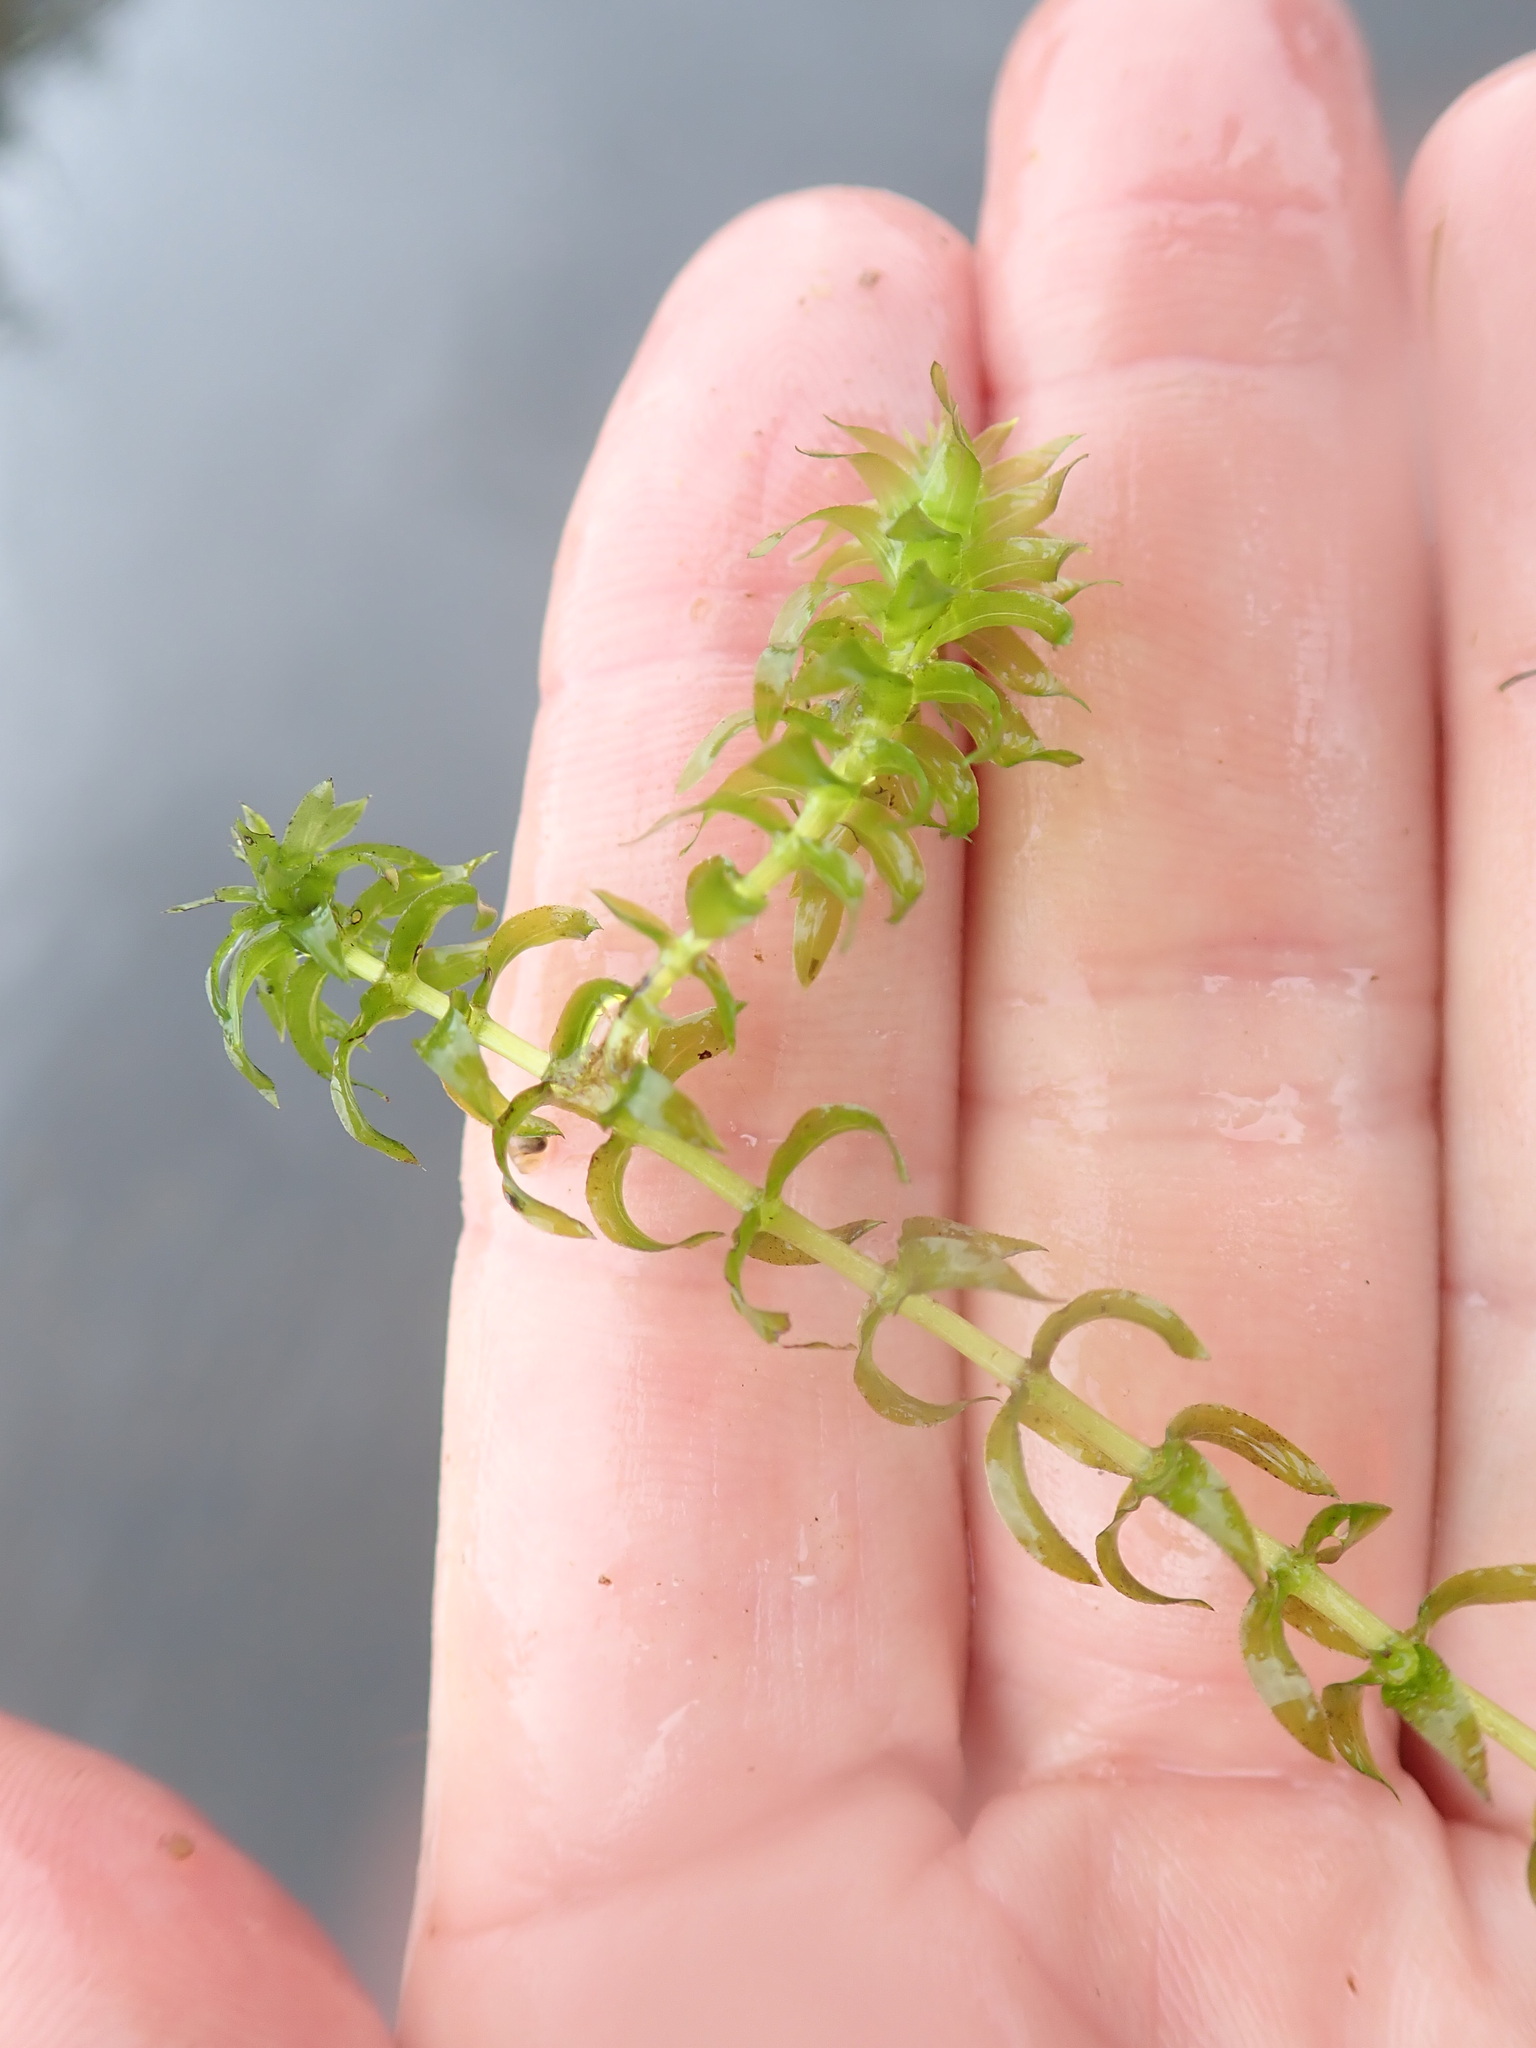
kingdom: Plantae
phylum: Tracheophyta
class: Liliopsida
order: Alismatales
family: Hydrocharitaceae
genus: Elodea
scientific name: Elodea canadensis
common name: Canadian waterweed
